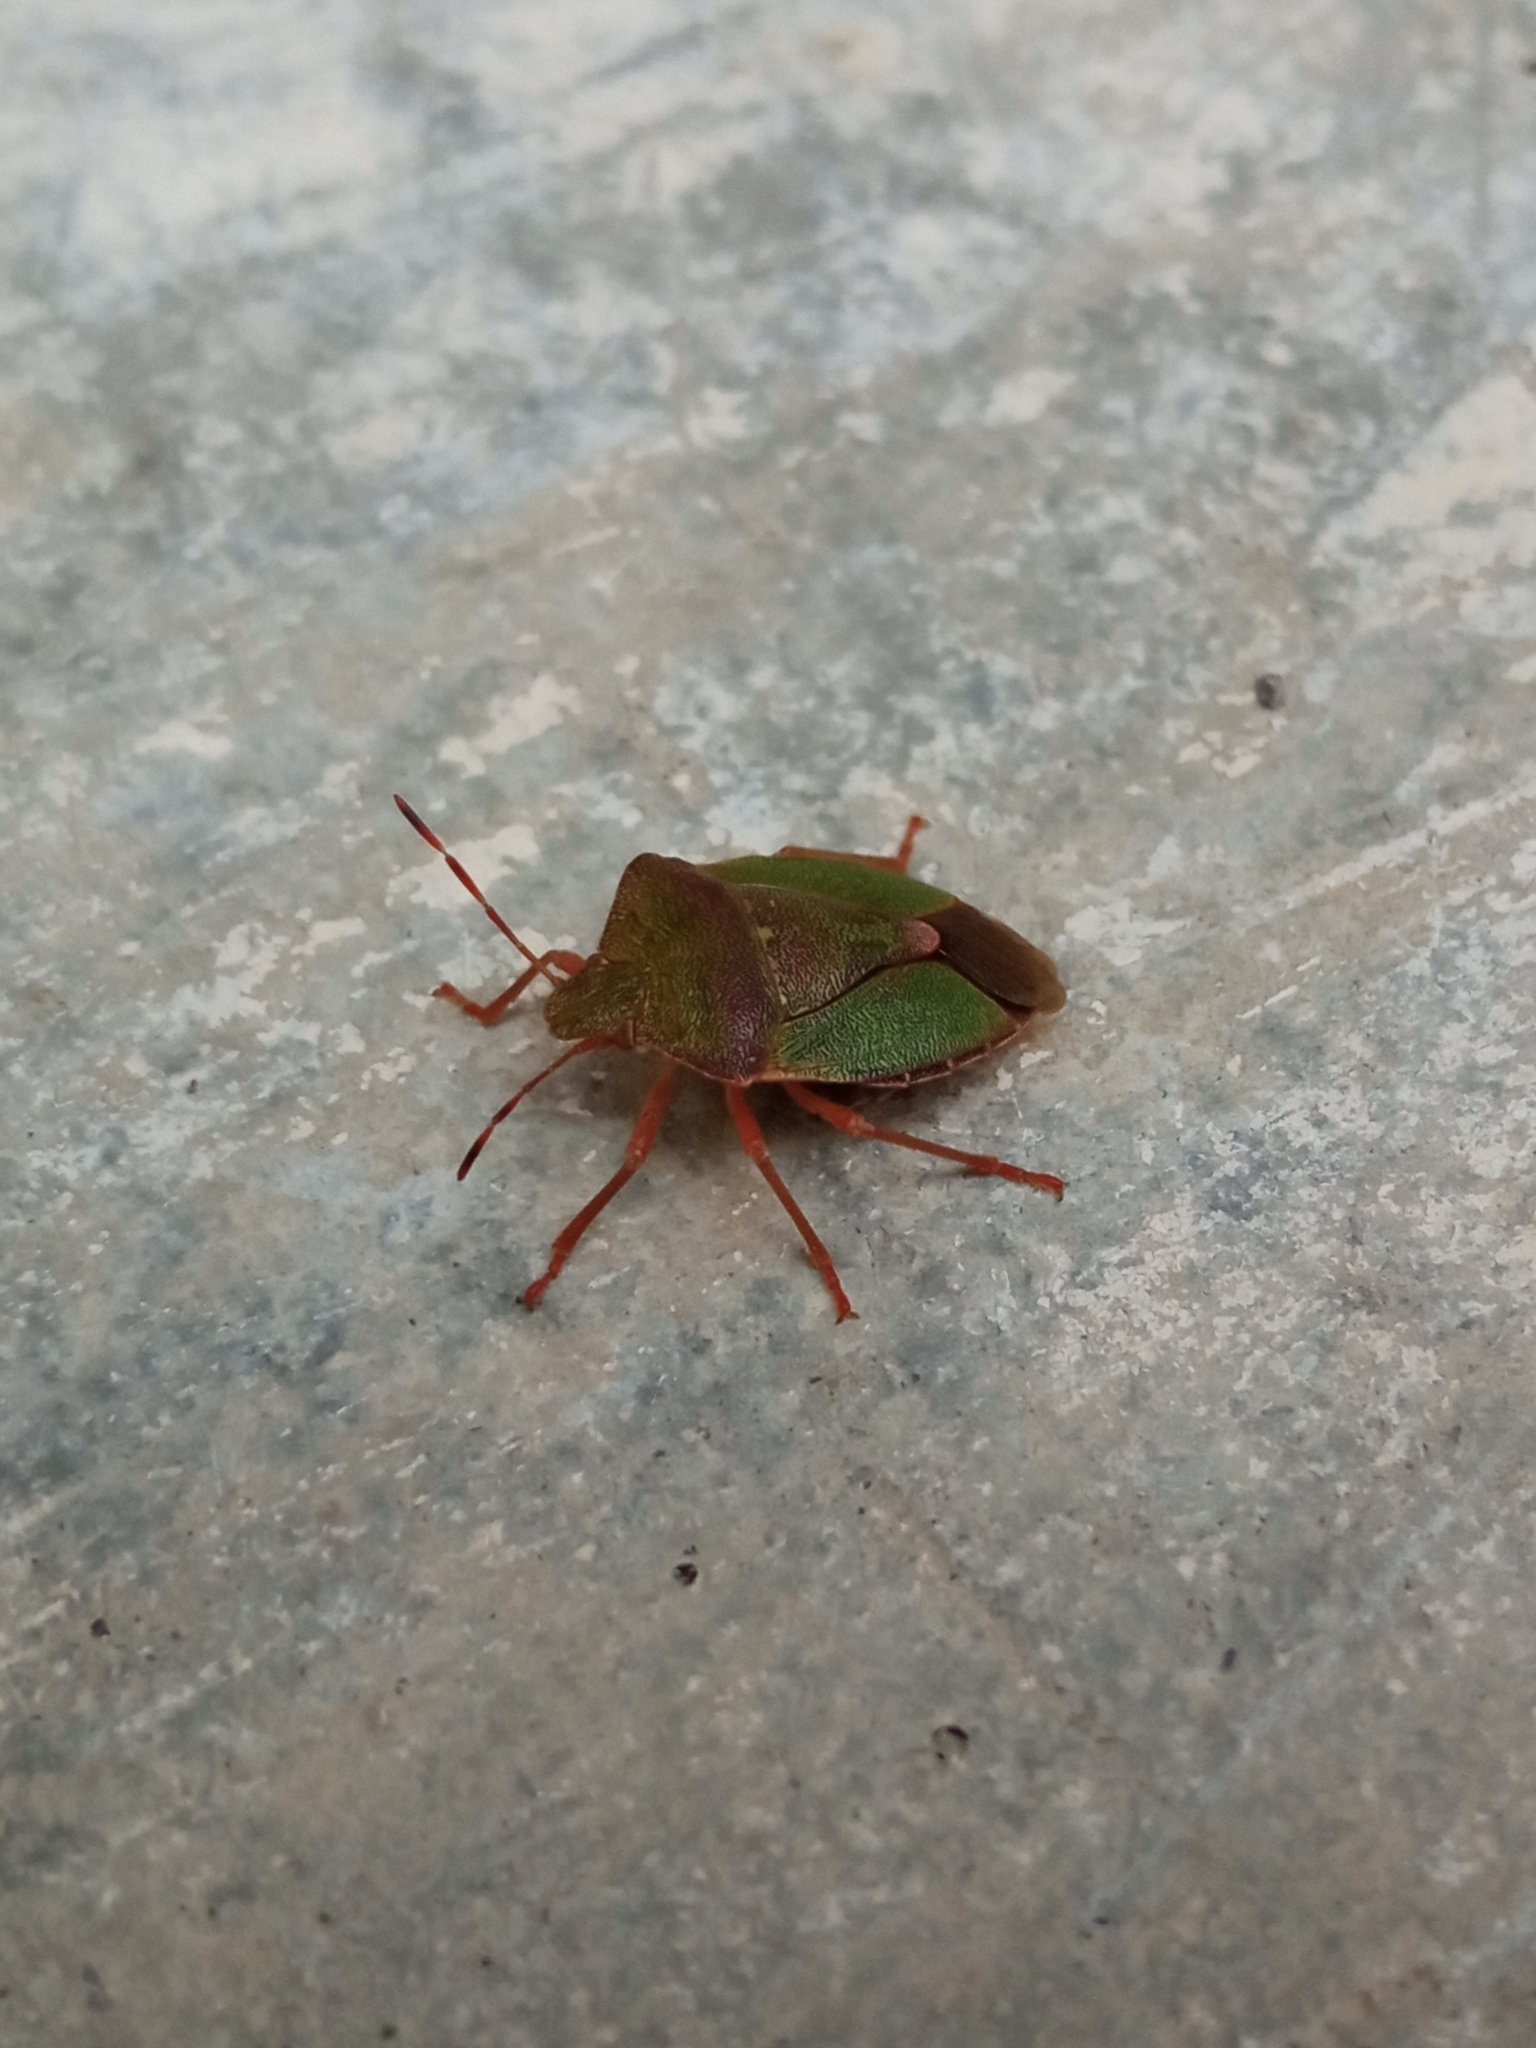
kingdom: Animalia
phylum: Arthropoda
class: Insecta
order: Hemiptera
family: Pentatomidae
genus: Palomena
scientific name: Palomena prasina
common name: Green shieldbug
